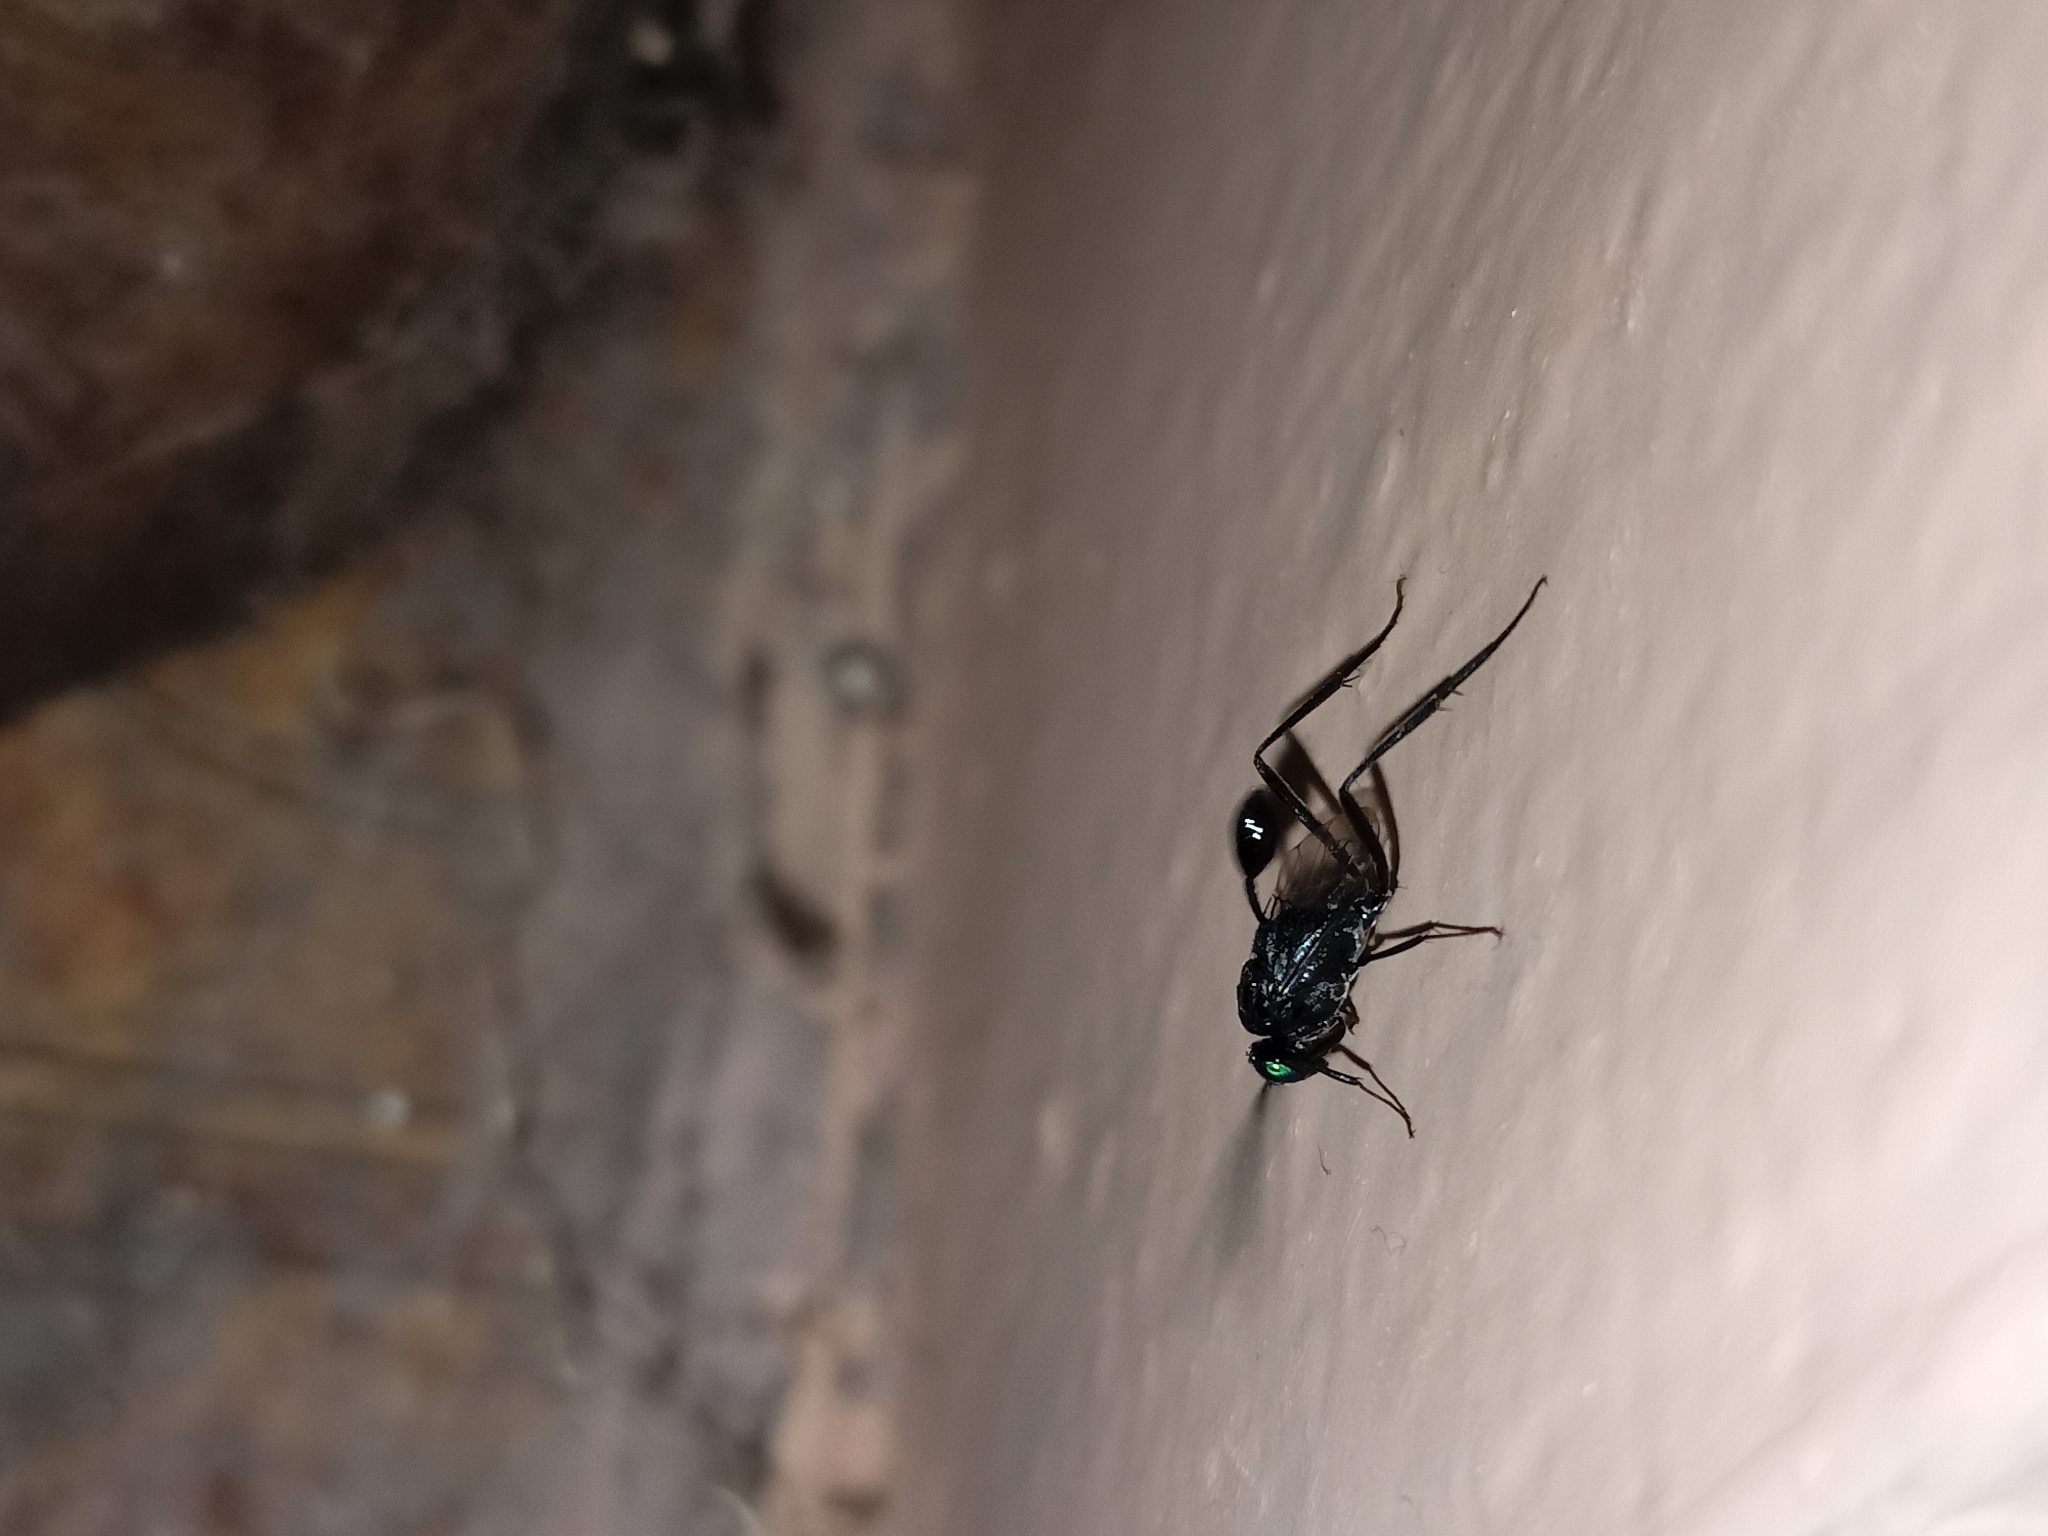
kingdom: Animalia
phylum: Arthropoda
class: Insecta
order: Hymenoptera
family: Evaniidae
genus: Evania
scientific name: Evania appendigaster
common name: Ensign wasp
